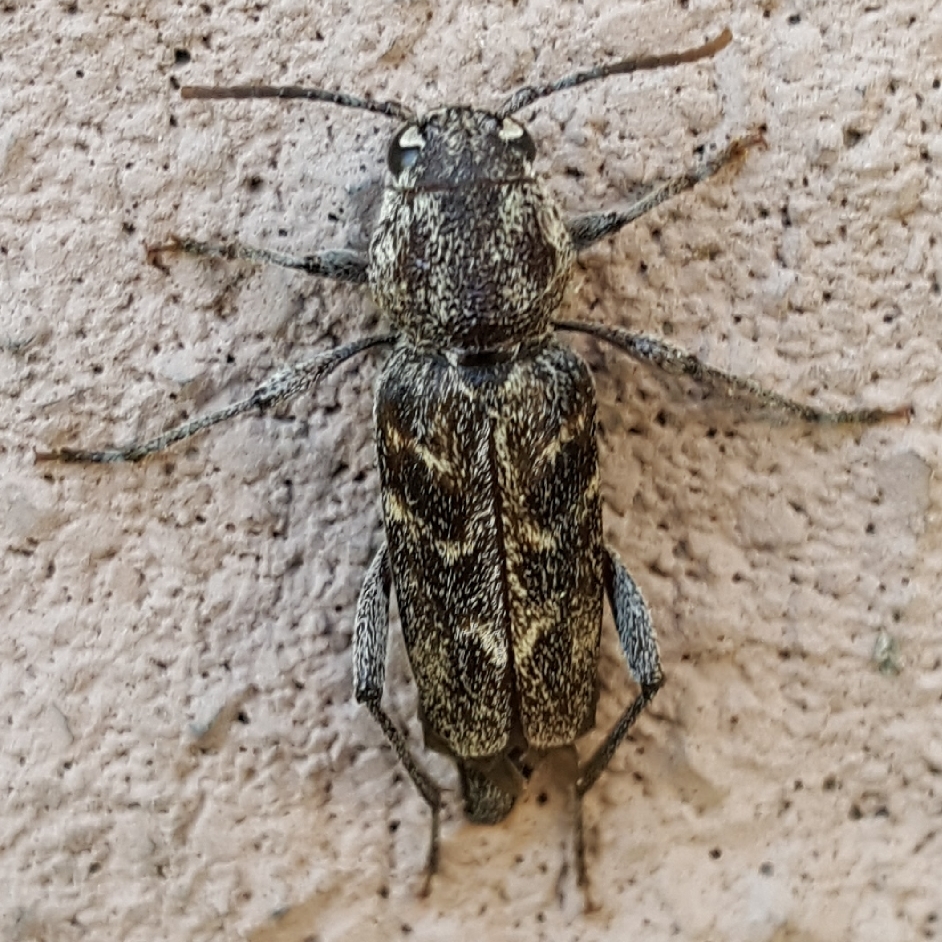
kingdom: Animalia
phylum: Arthropoda
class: Insecta
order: Coleoptera
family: Cerambycidae
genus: Xylotrechus
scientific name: Xylotrechus nauticus
